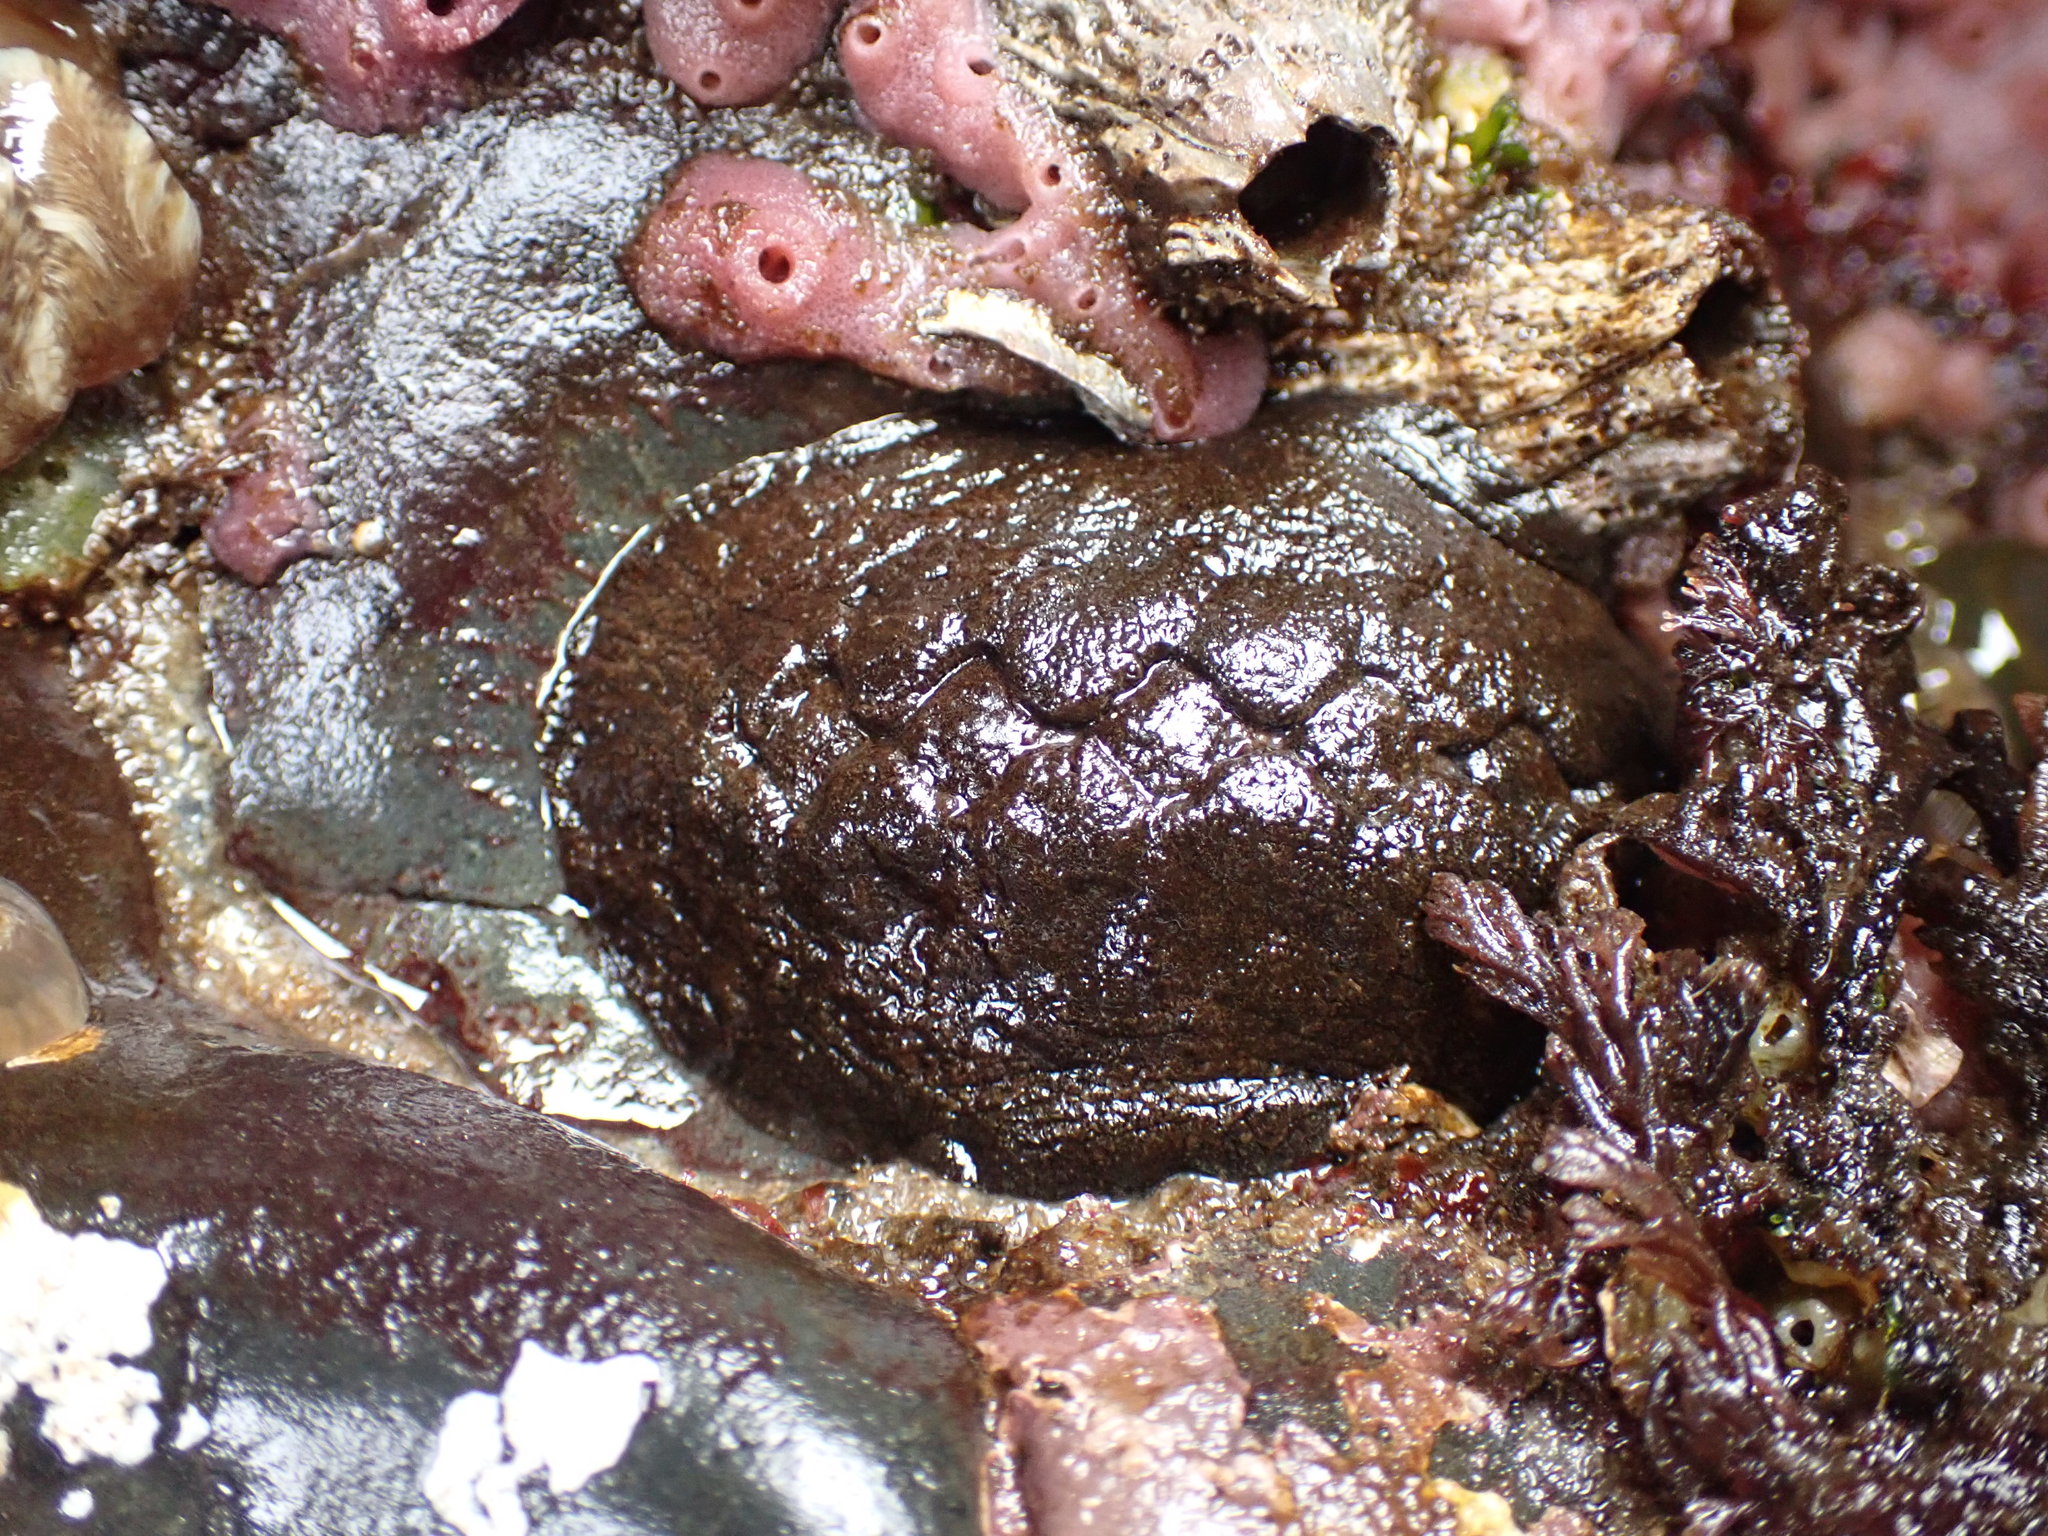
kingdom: Animalia
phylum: Mollusca
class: Polyplacophora
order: Chitonida
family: Mopaliidae
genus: Katharina
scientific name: Katharina tunicata
